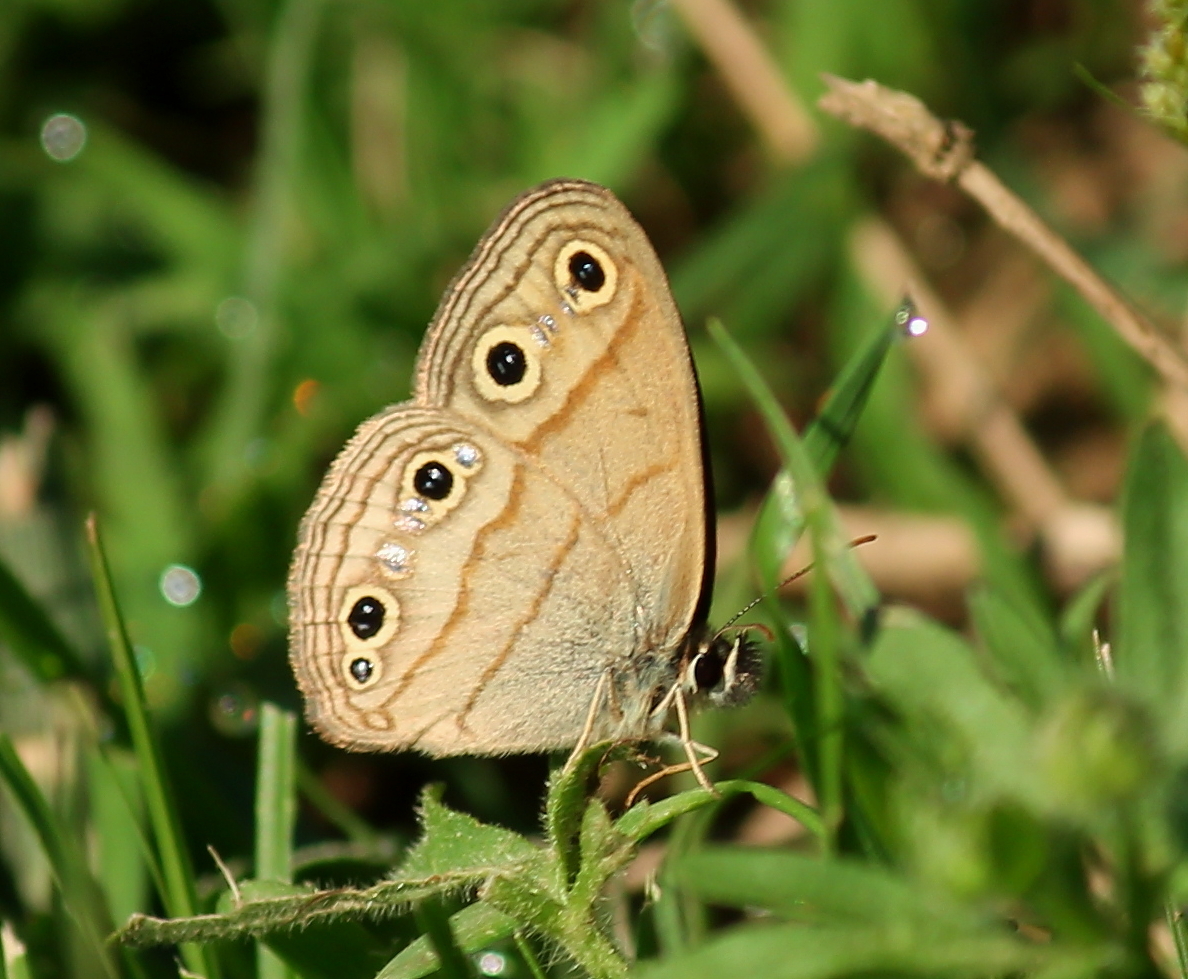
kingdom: Animalia
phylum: Arthropoda
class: Insecta
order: Lepidoptera
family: Nymphalidae
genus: Euptychia
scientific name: Euptychia cymela
